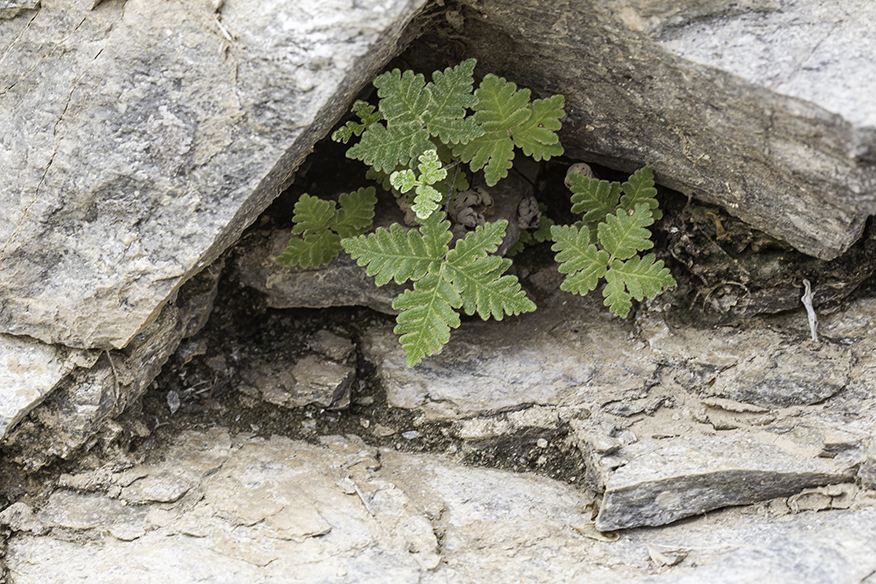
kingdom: Plantae
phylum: Tracheophyta
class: Polypodiopsida
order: Polypodiales
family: Pteridaceae
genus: Notholaena
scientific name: Notholaena standleyi
